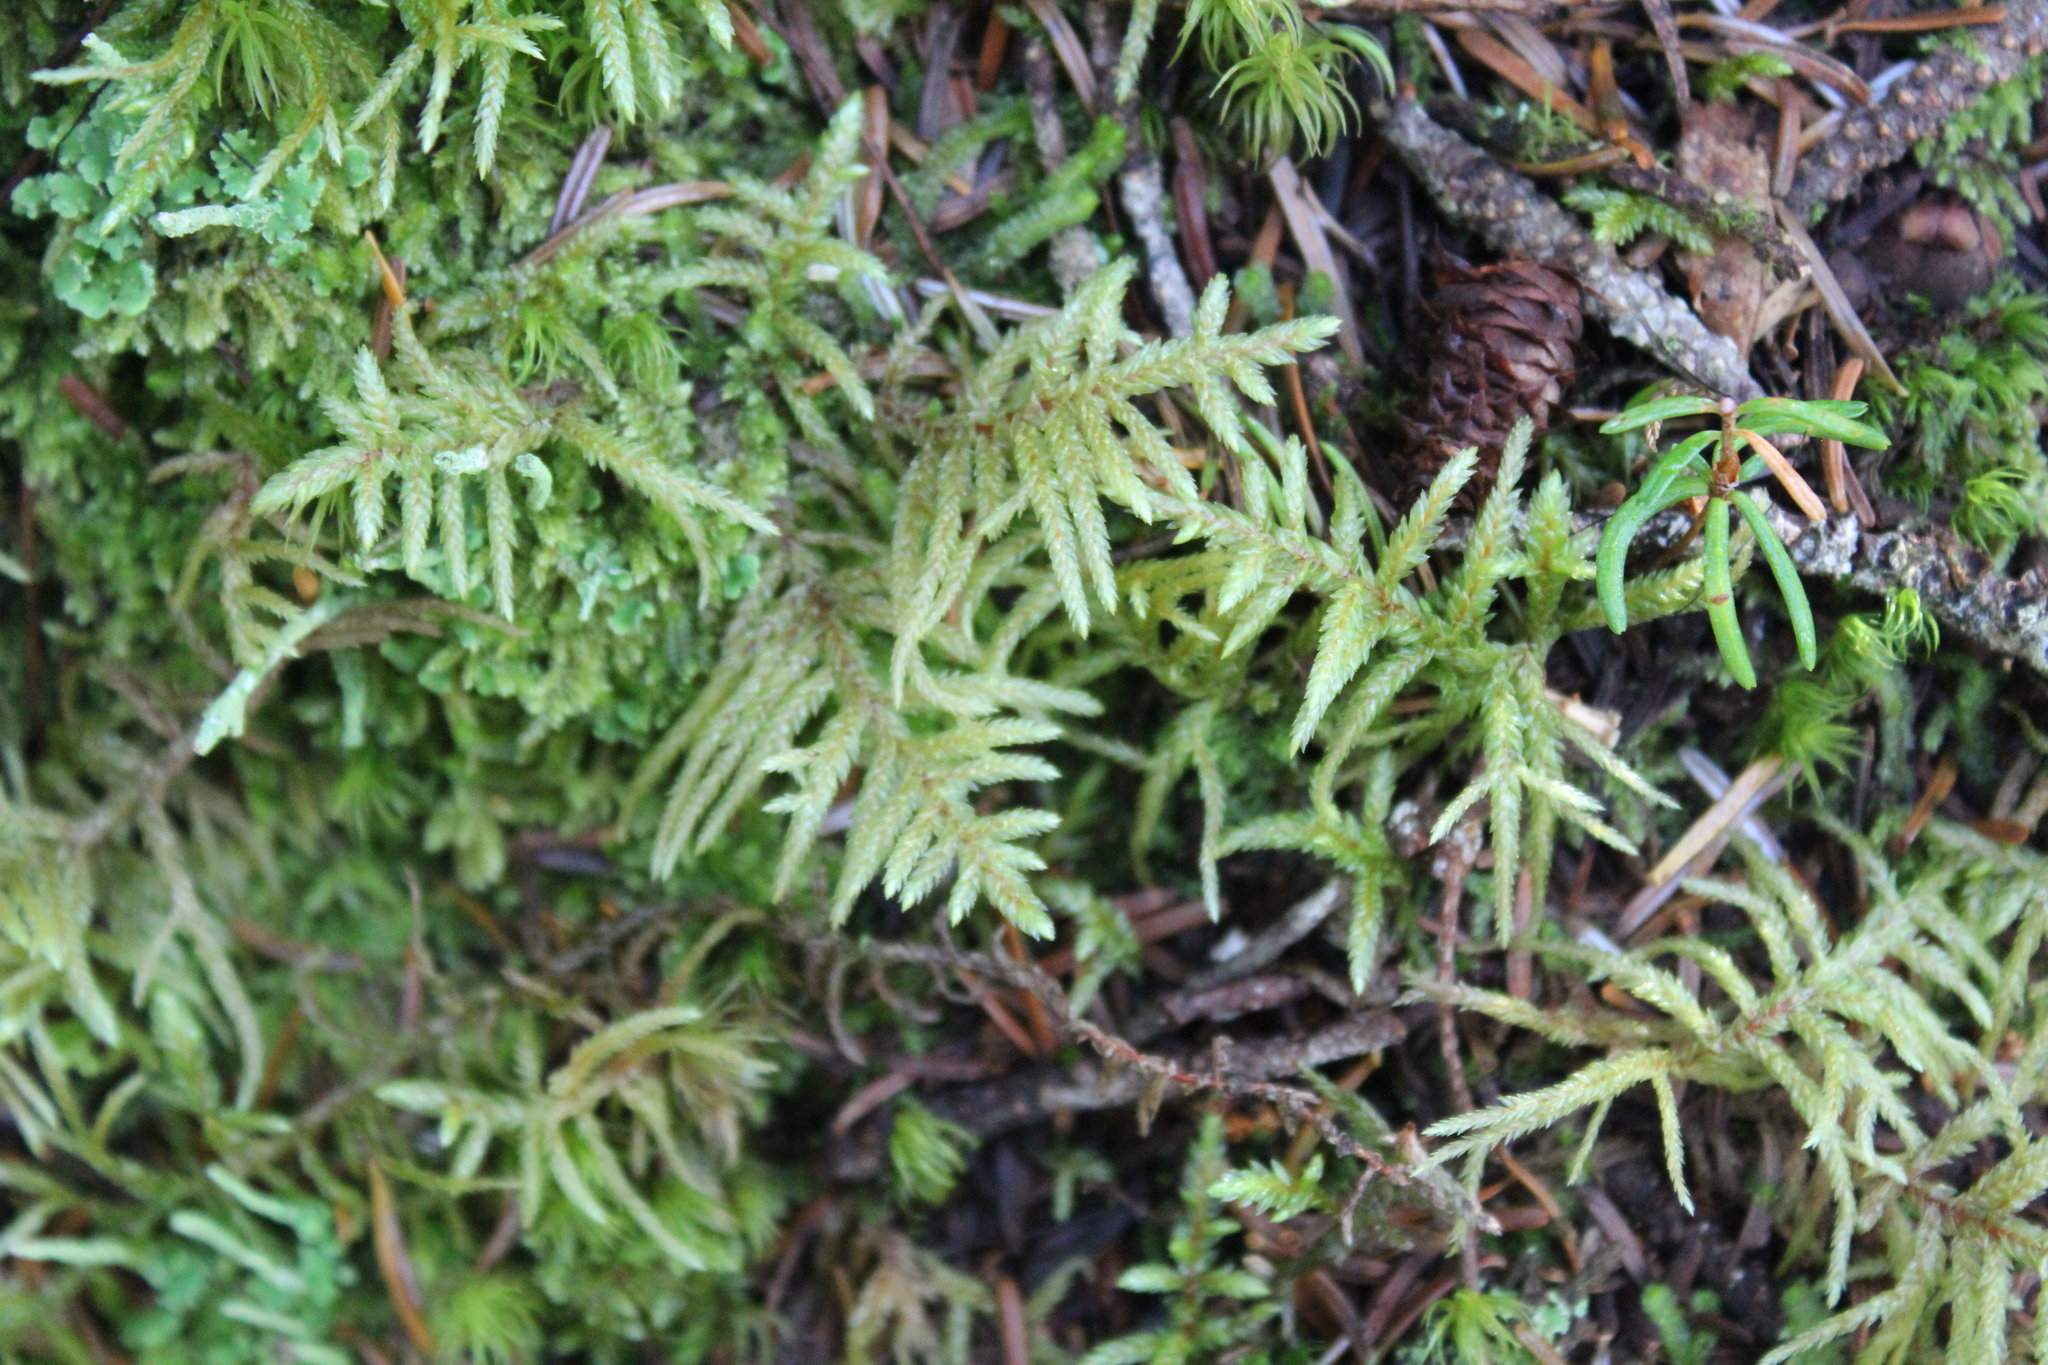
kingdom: Plantae
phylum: Bryophyta
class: Bryopsida
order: Hypnales
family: Hylocomiaceae
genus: Pleurozium
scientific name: Pleurozium schreberi
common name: Red-stemmed feather moss
